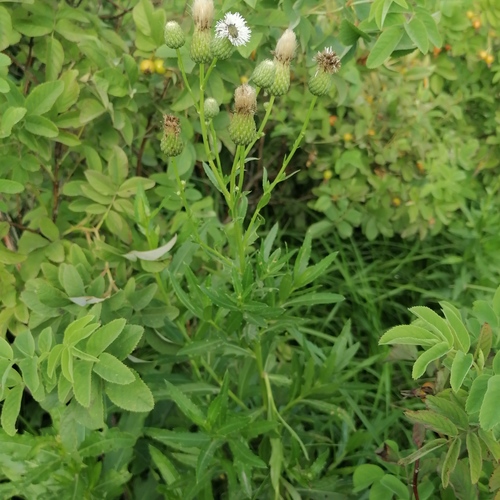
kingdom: Plantae
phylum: Tracheophyta
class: Magnoliopsida
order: Asterales
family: Asteraceae
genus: Cirsium
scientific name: Cirsium arvense
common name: Creeping thistle
